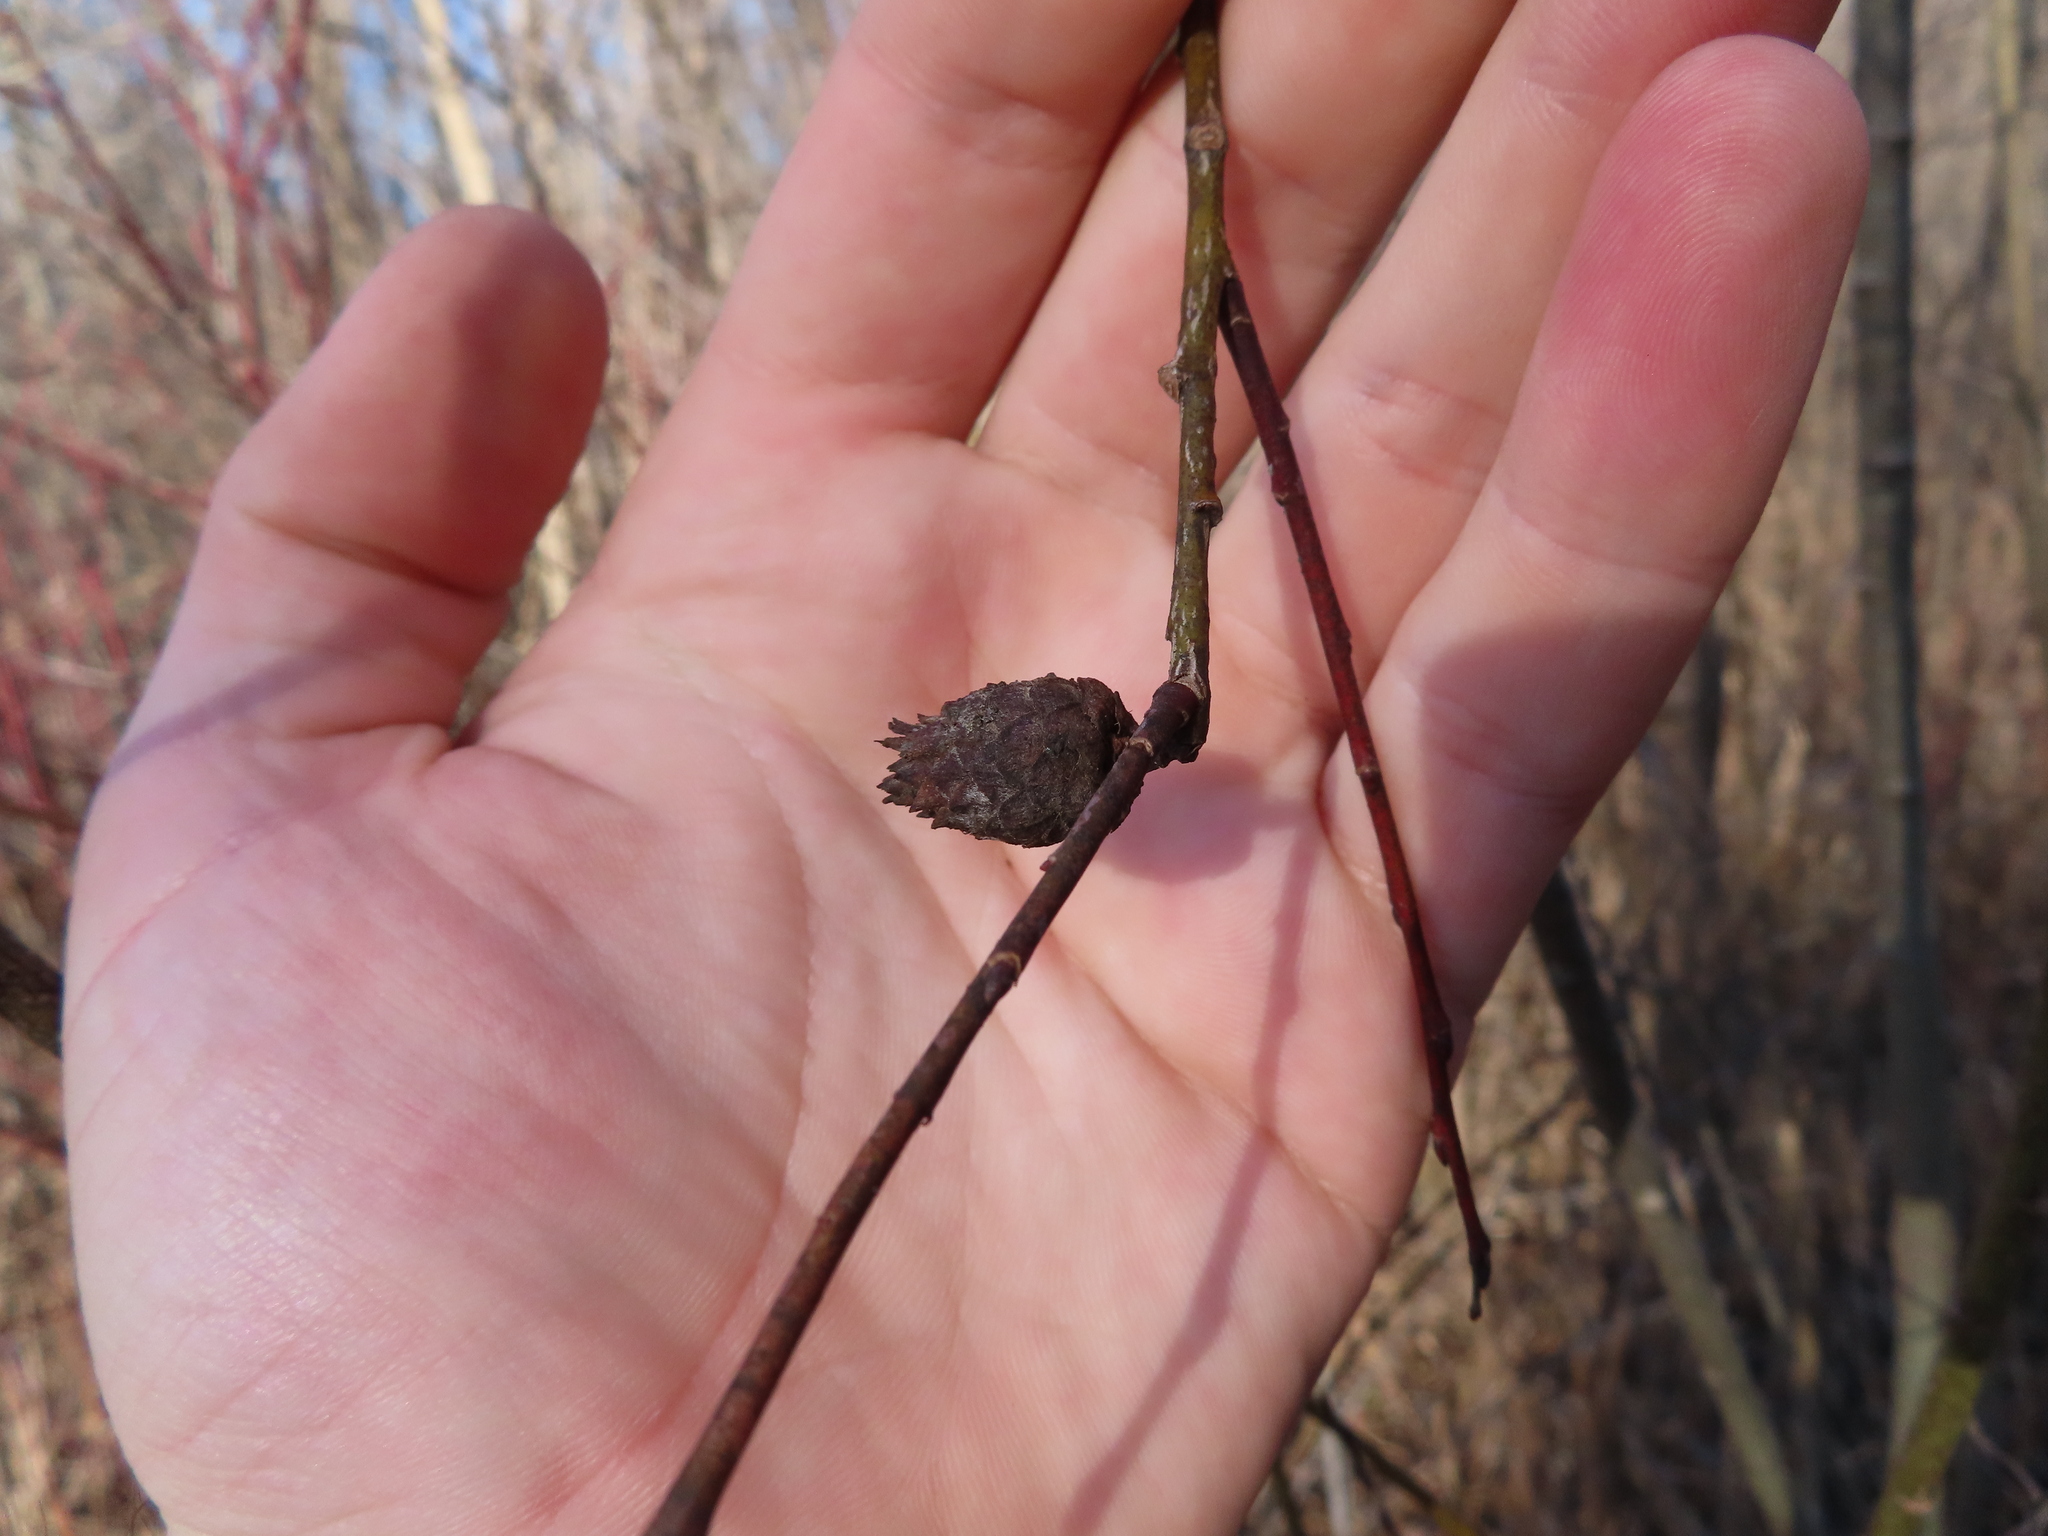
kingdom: Animalia
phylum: Arthropoda
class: Insecta
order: Diptera
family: Cecidomyiidae
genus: Rabdophaga
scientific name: Rabdophaga strobiloides
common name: Willow pinecone gall midge
